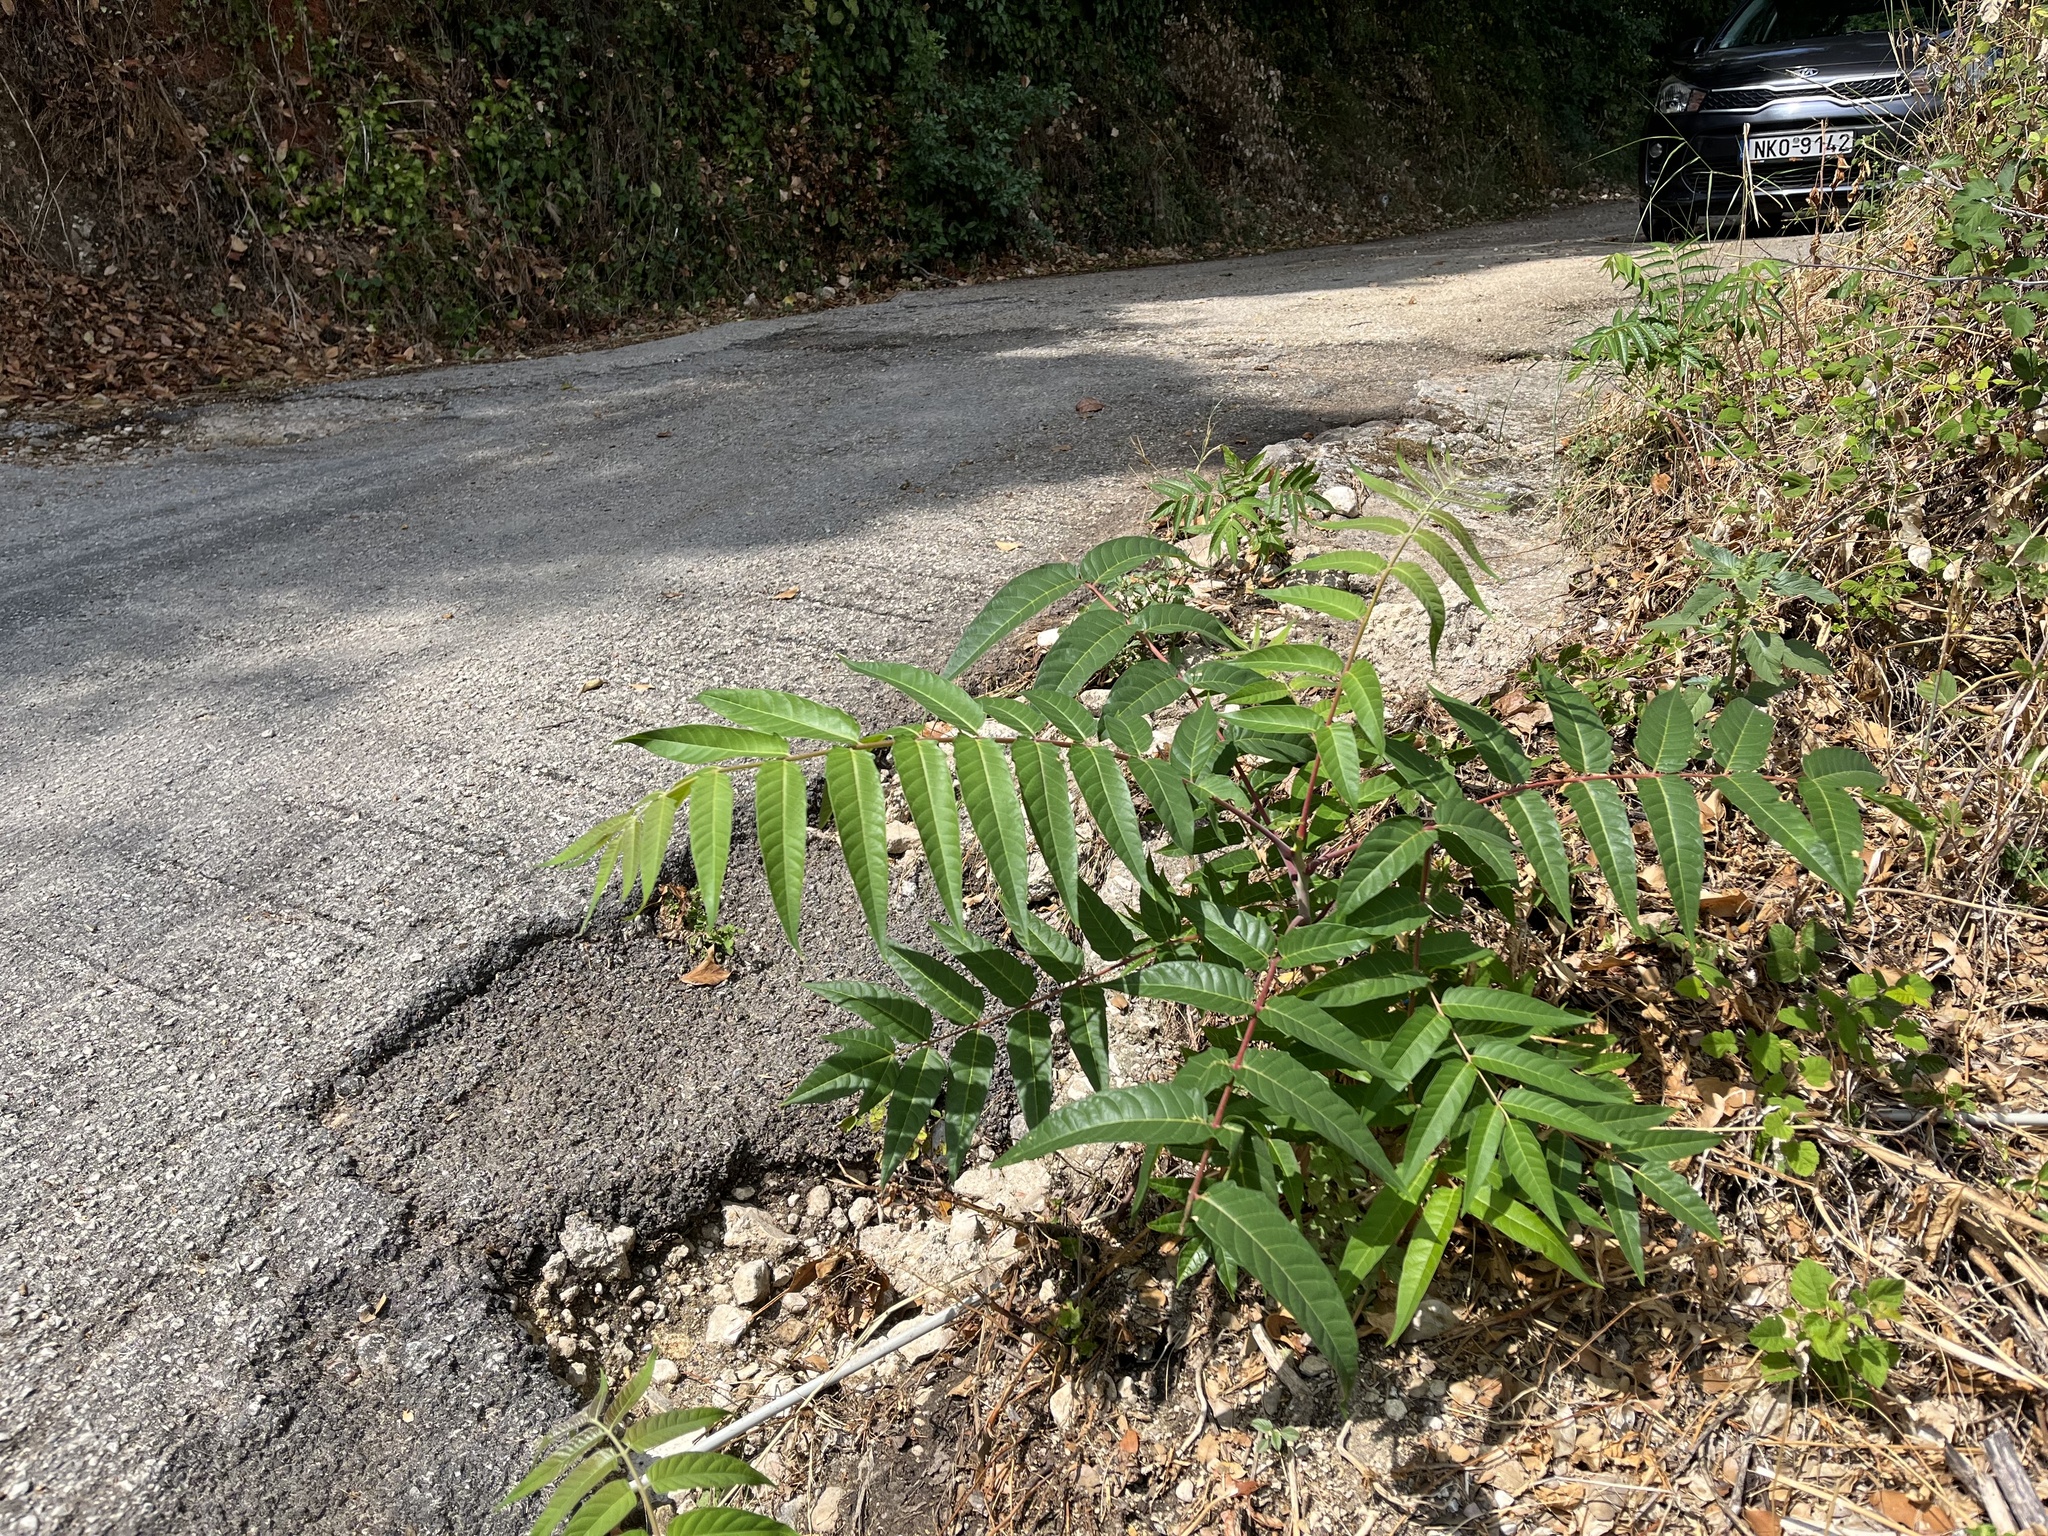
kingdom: Plantae
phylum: Tracheophyta
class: Magnoliopsida
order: Sapindales
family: Simaroubaceae
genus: Ailanthus
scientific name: Ailanthus altissima
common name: Tree-of-heaven
